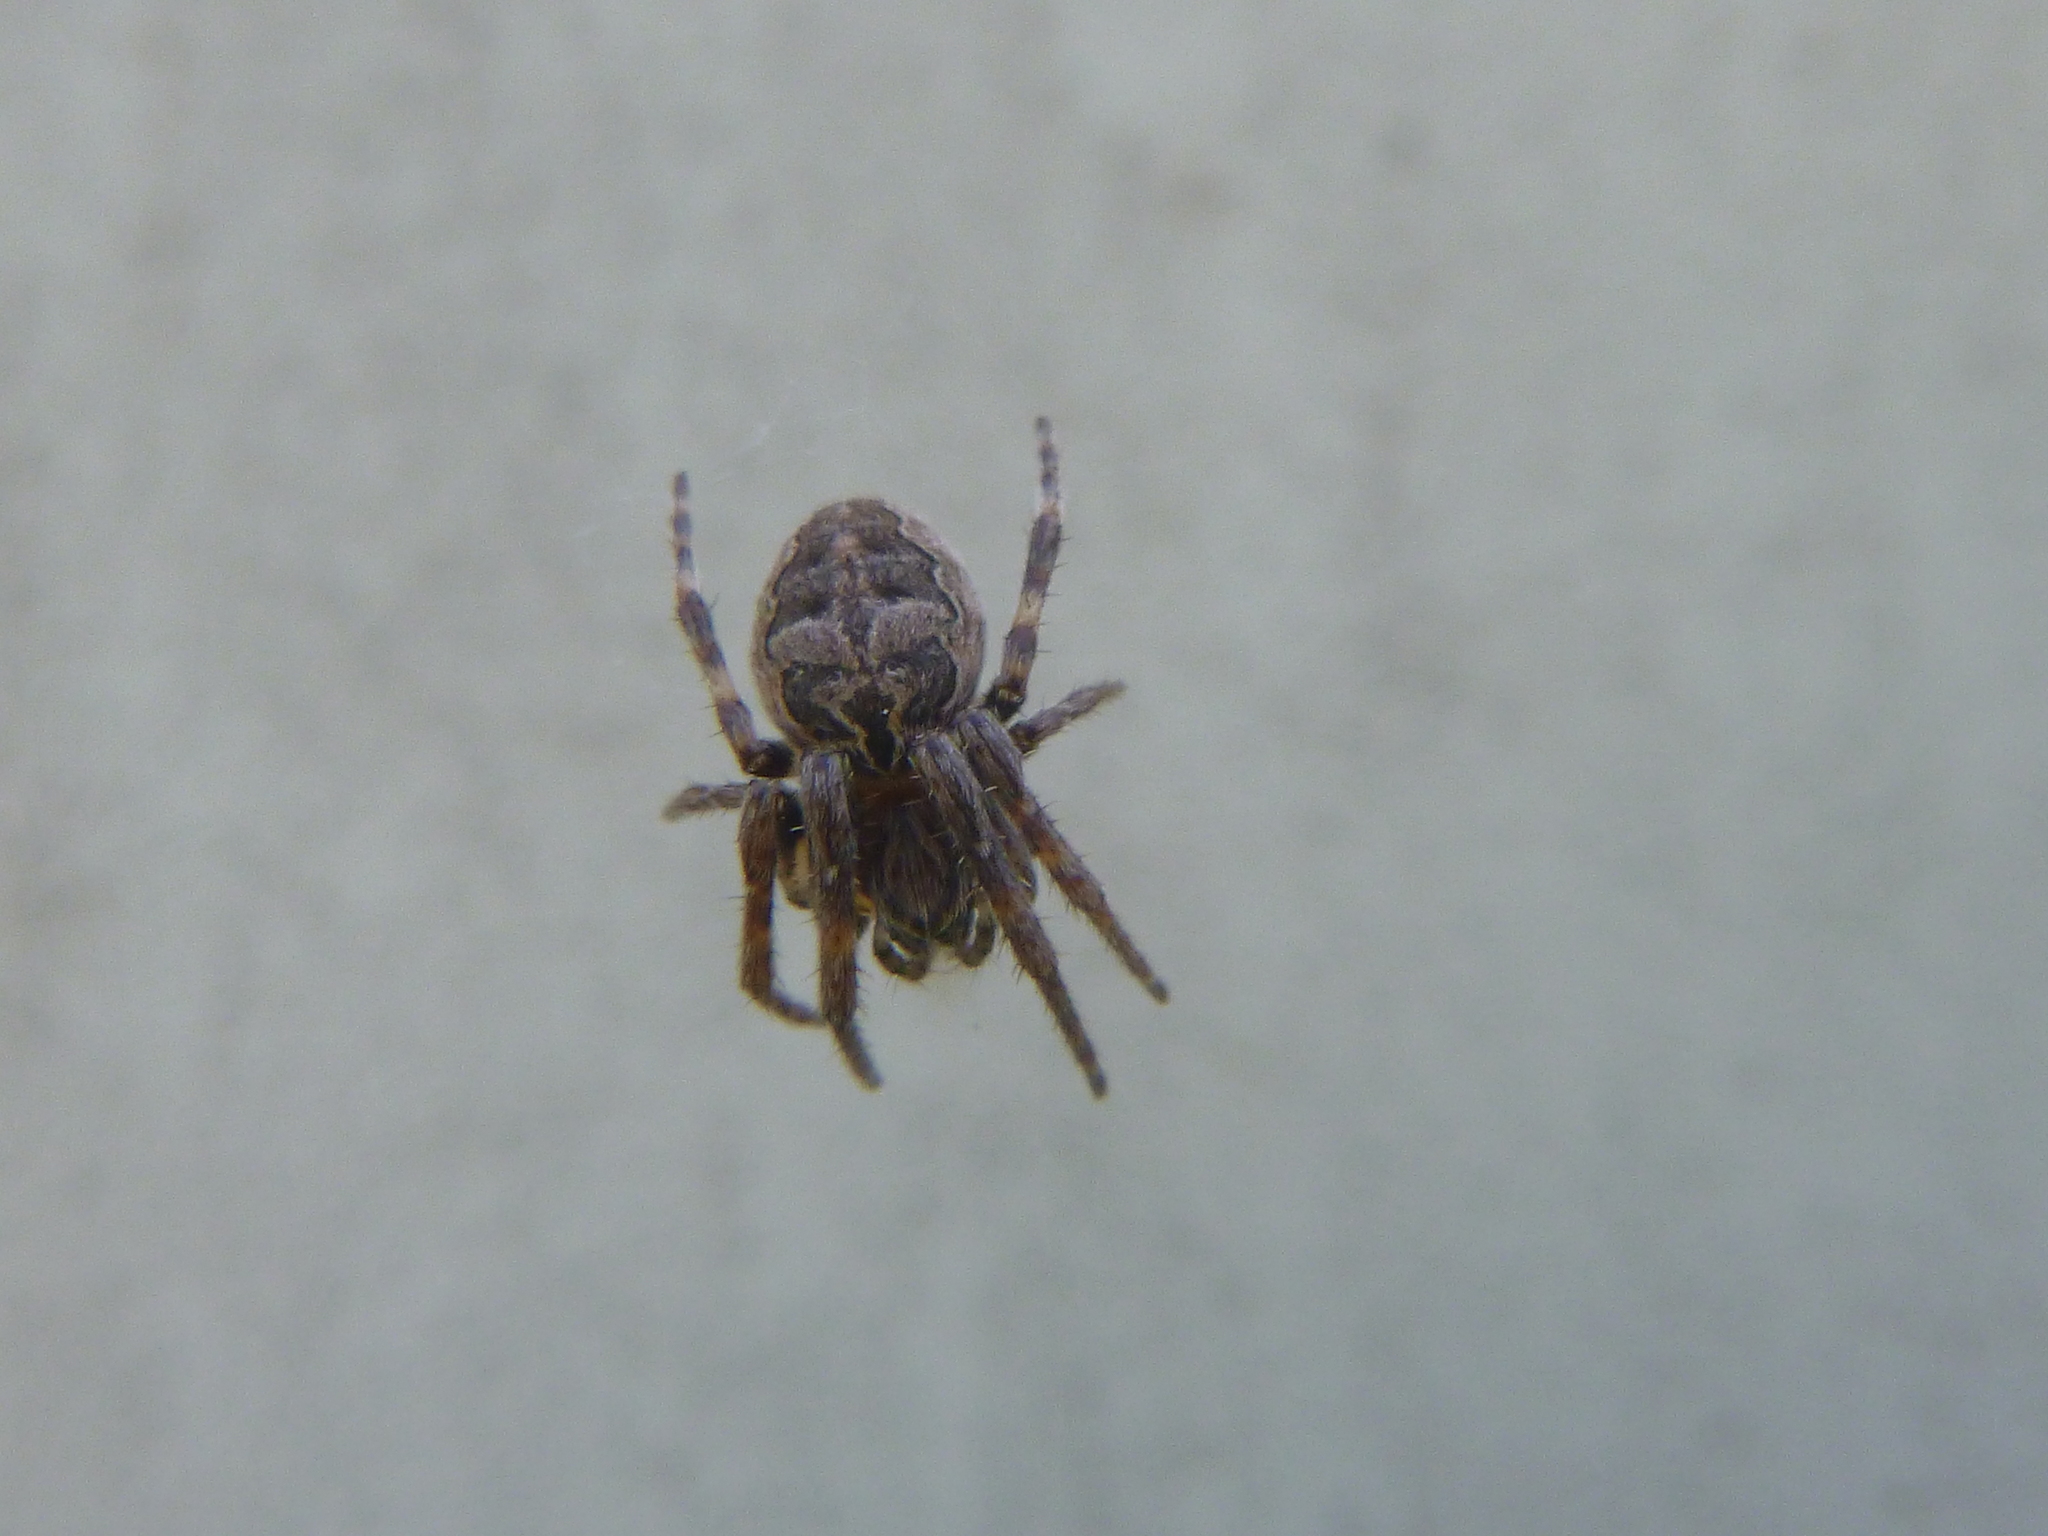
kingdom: Animalia
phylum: Arthropoda
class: Arachnida
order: Araneae
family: Araneidae
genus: Larinioides
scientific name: Larinioides sclopetarius
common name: Bridge orbweaver
